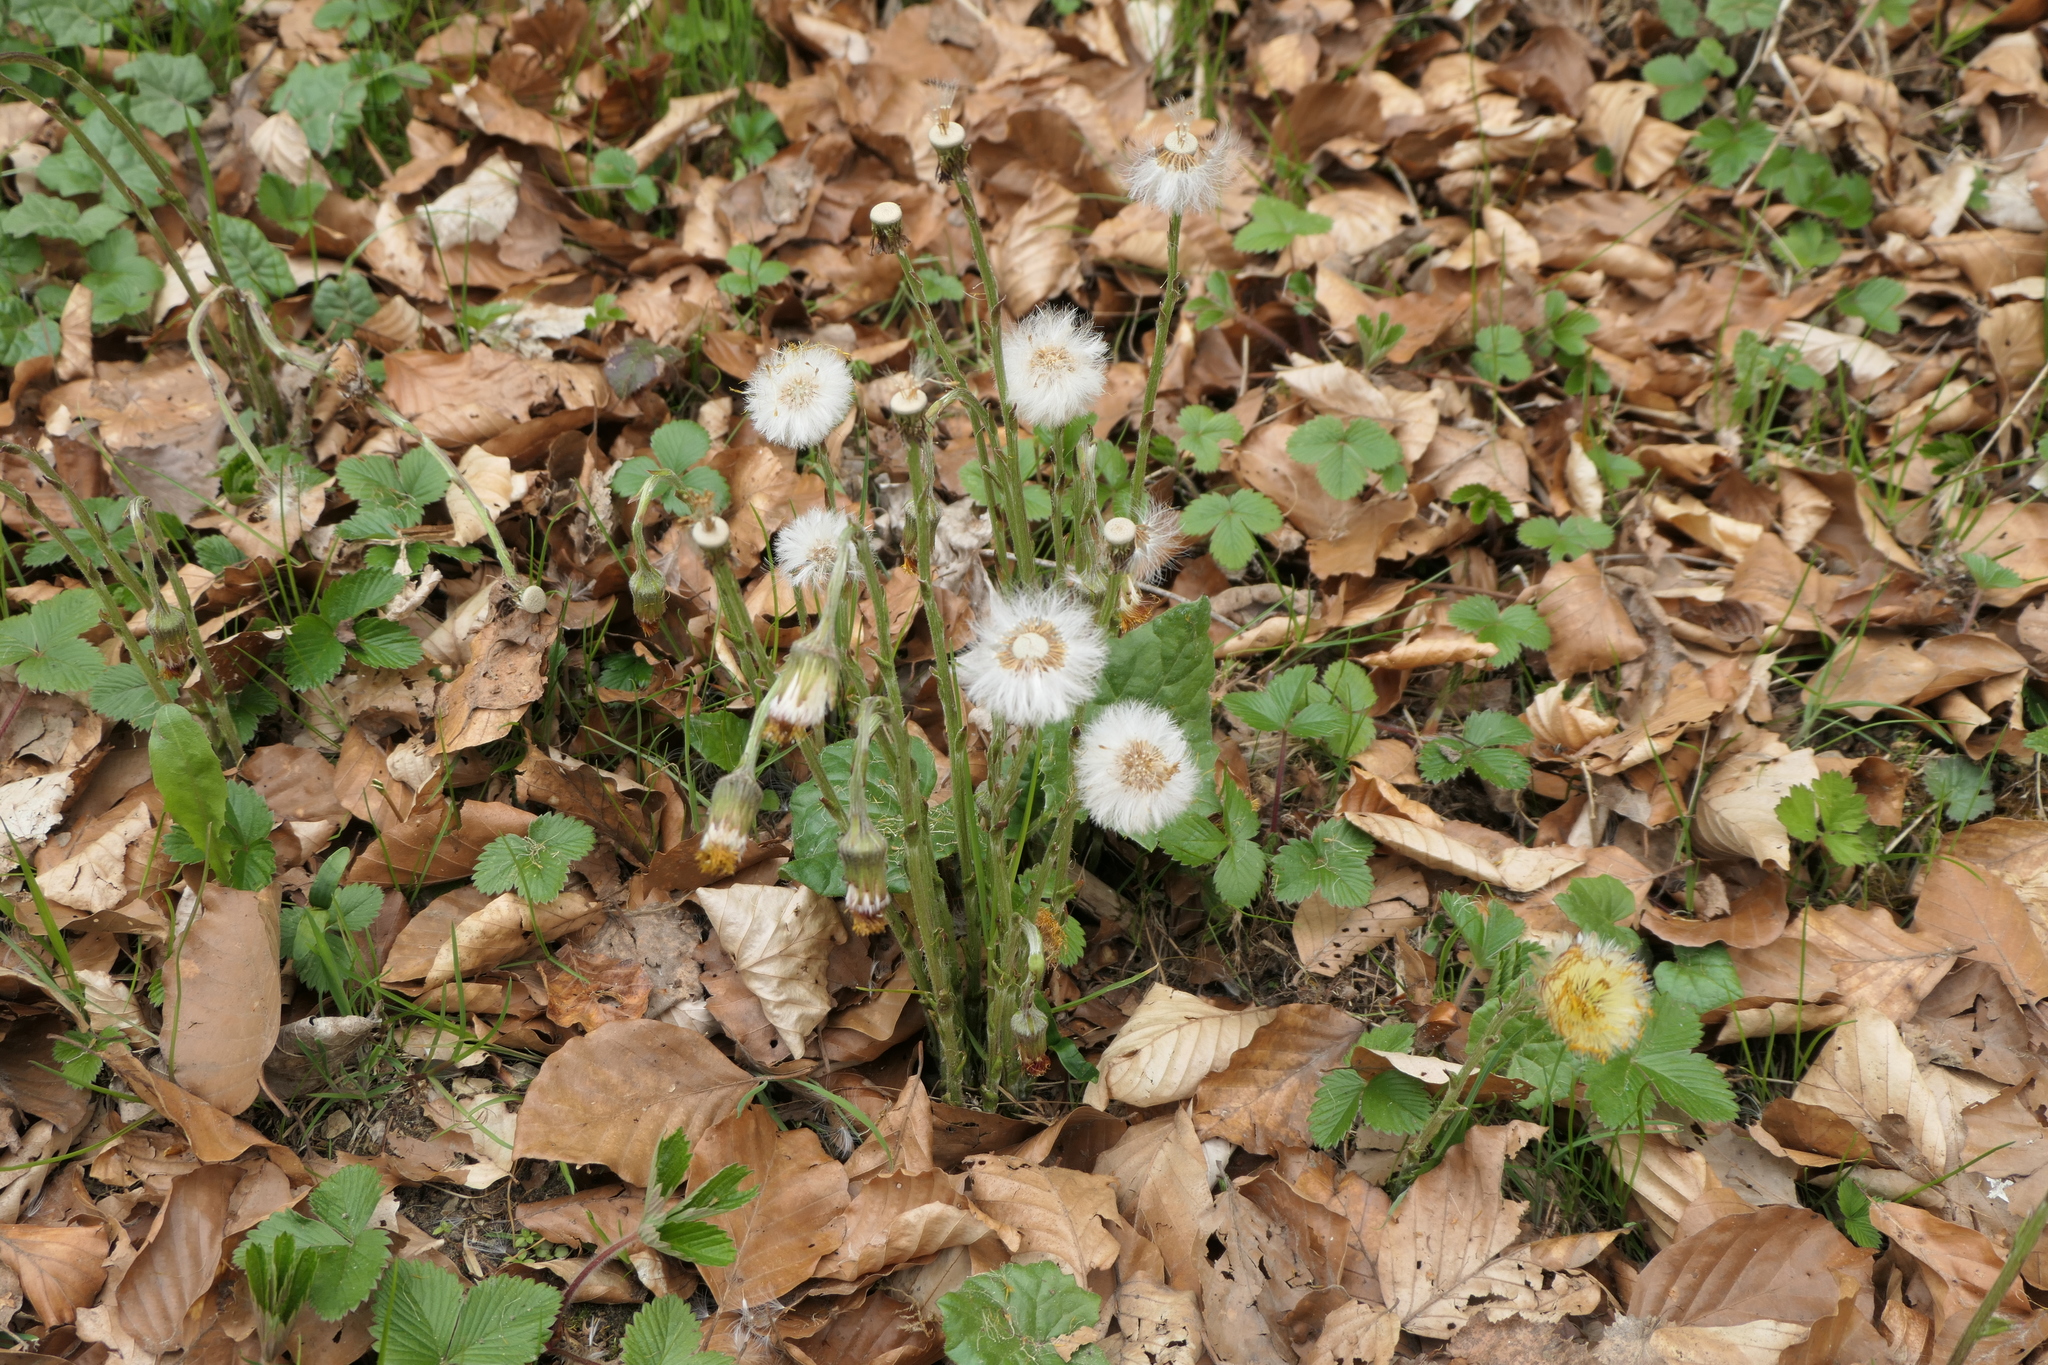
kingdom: Plantae
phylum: Tracheophyta
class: Magnoliopsida
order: Asterales
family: Asteraceae
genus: Tussilago
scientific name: Tussilago farfara
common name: Coltsfoot
